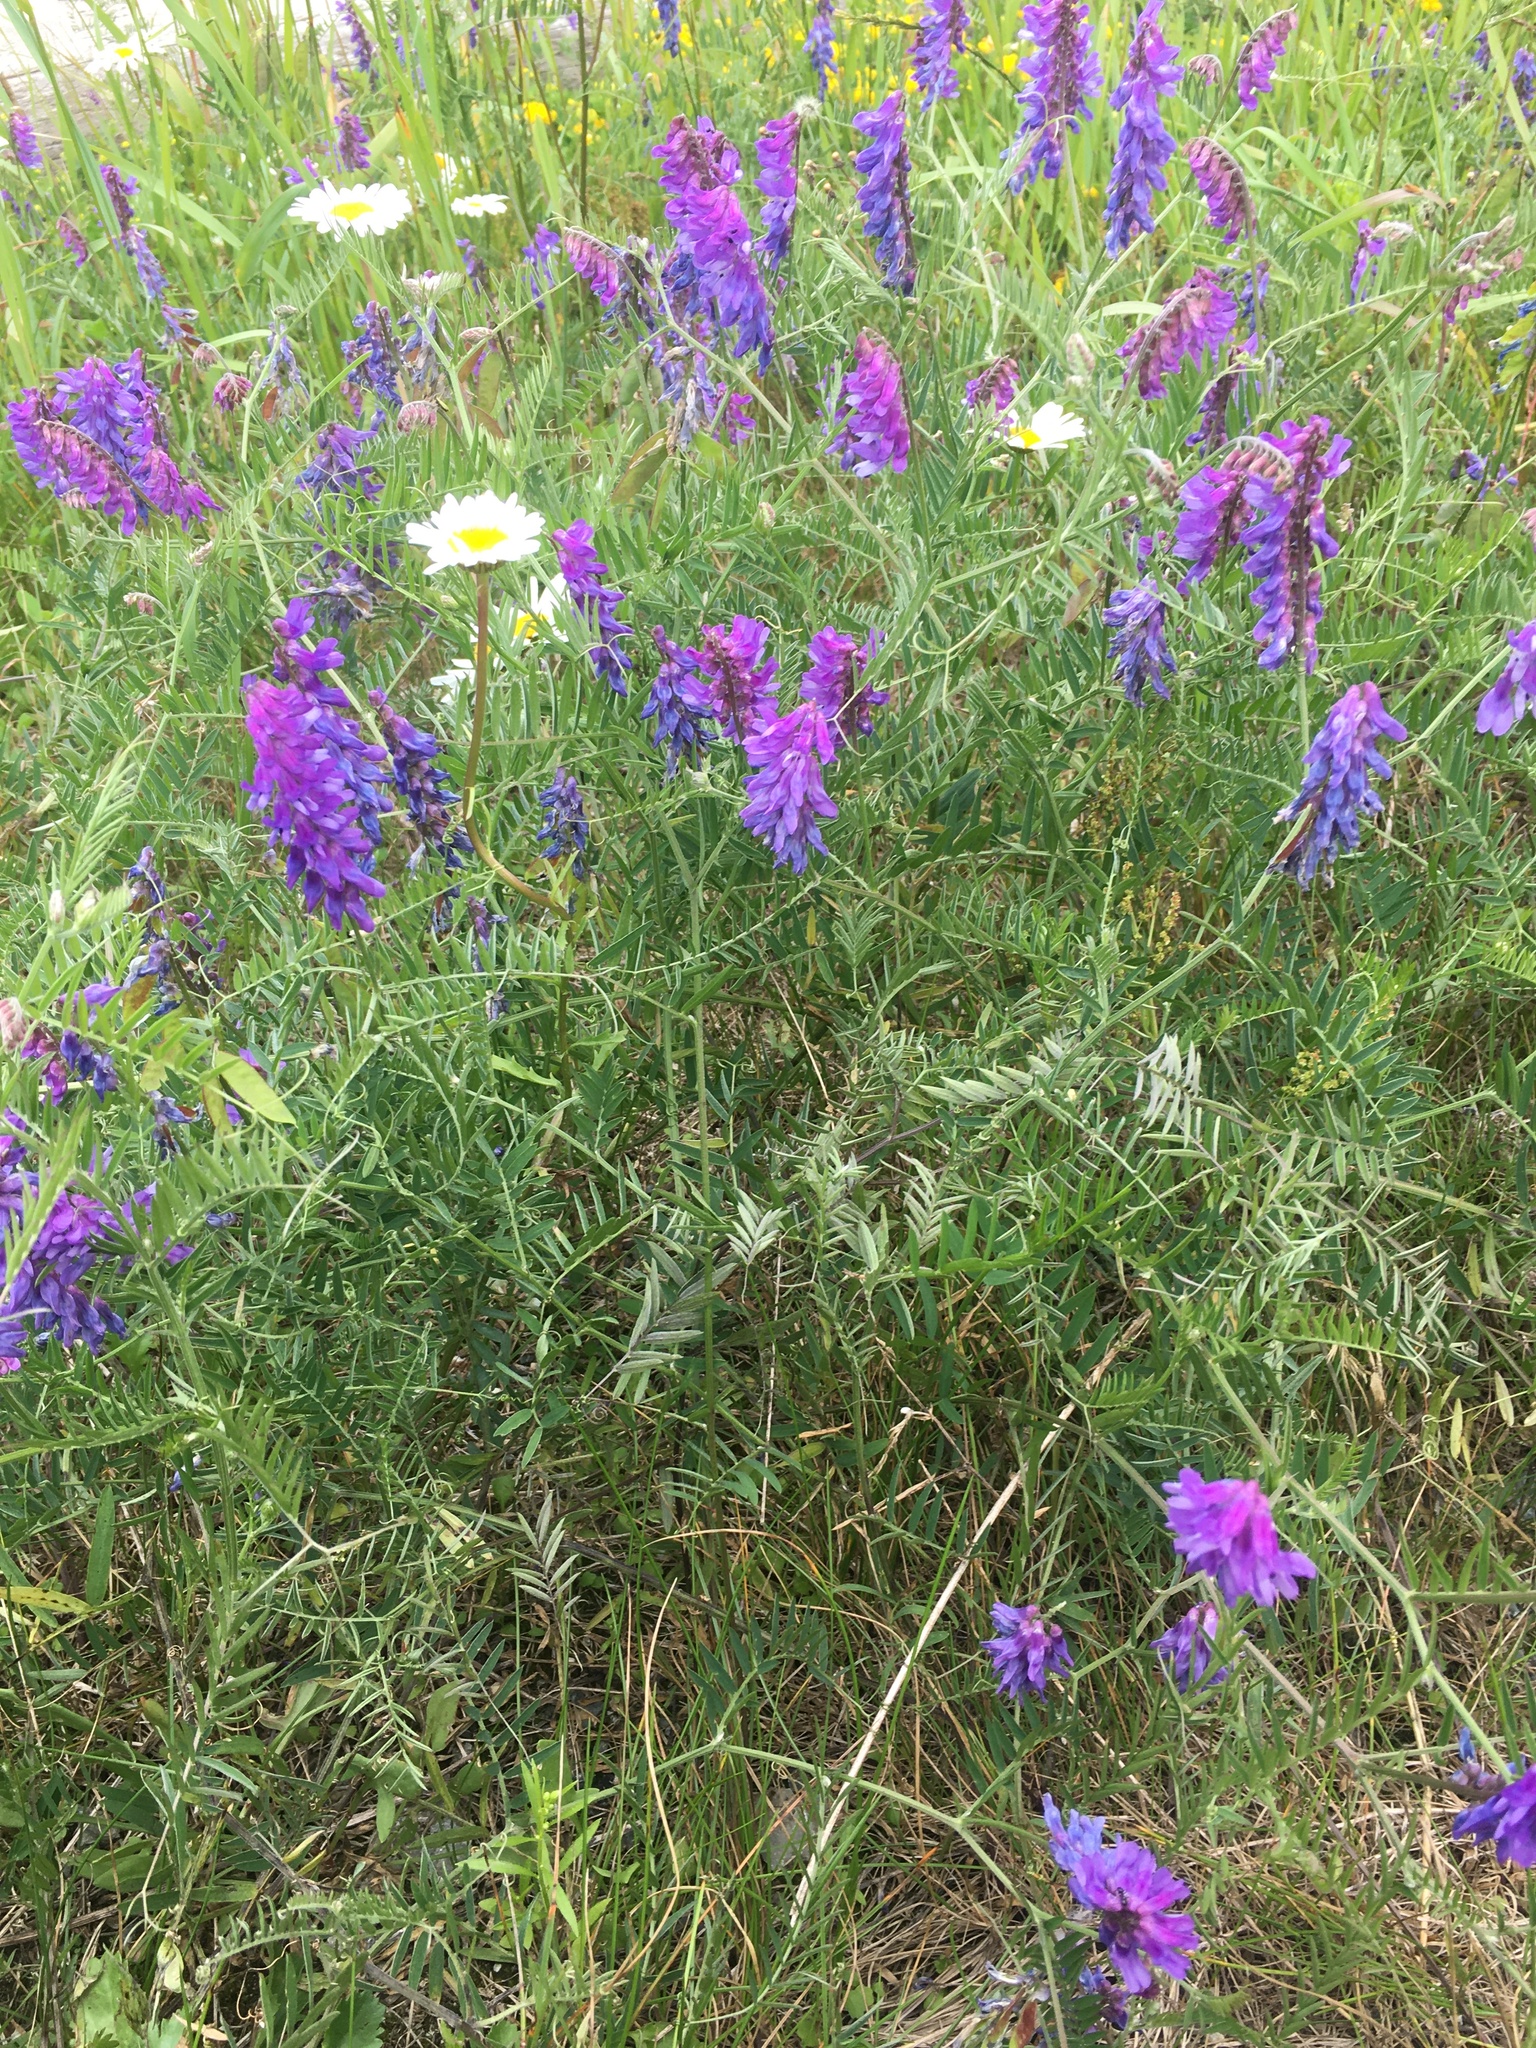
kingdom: Plantae
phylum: Tracheophyta
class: Magnoliopsida
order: Fabales
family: Fabaceae
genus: Vicia
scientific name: Vicia cracca
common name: Bird vetch
